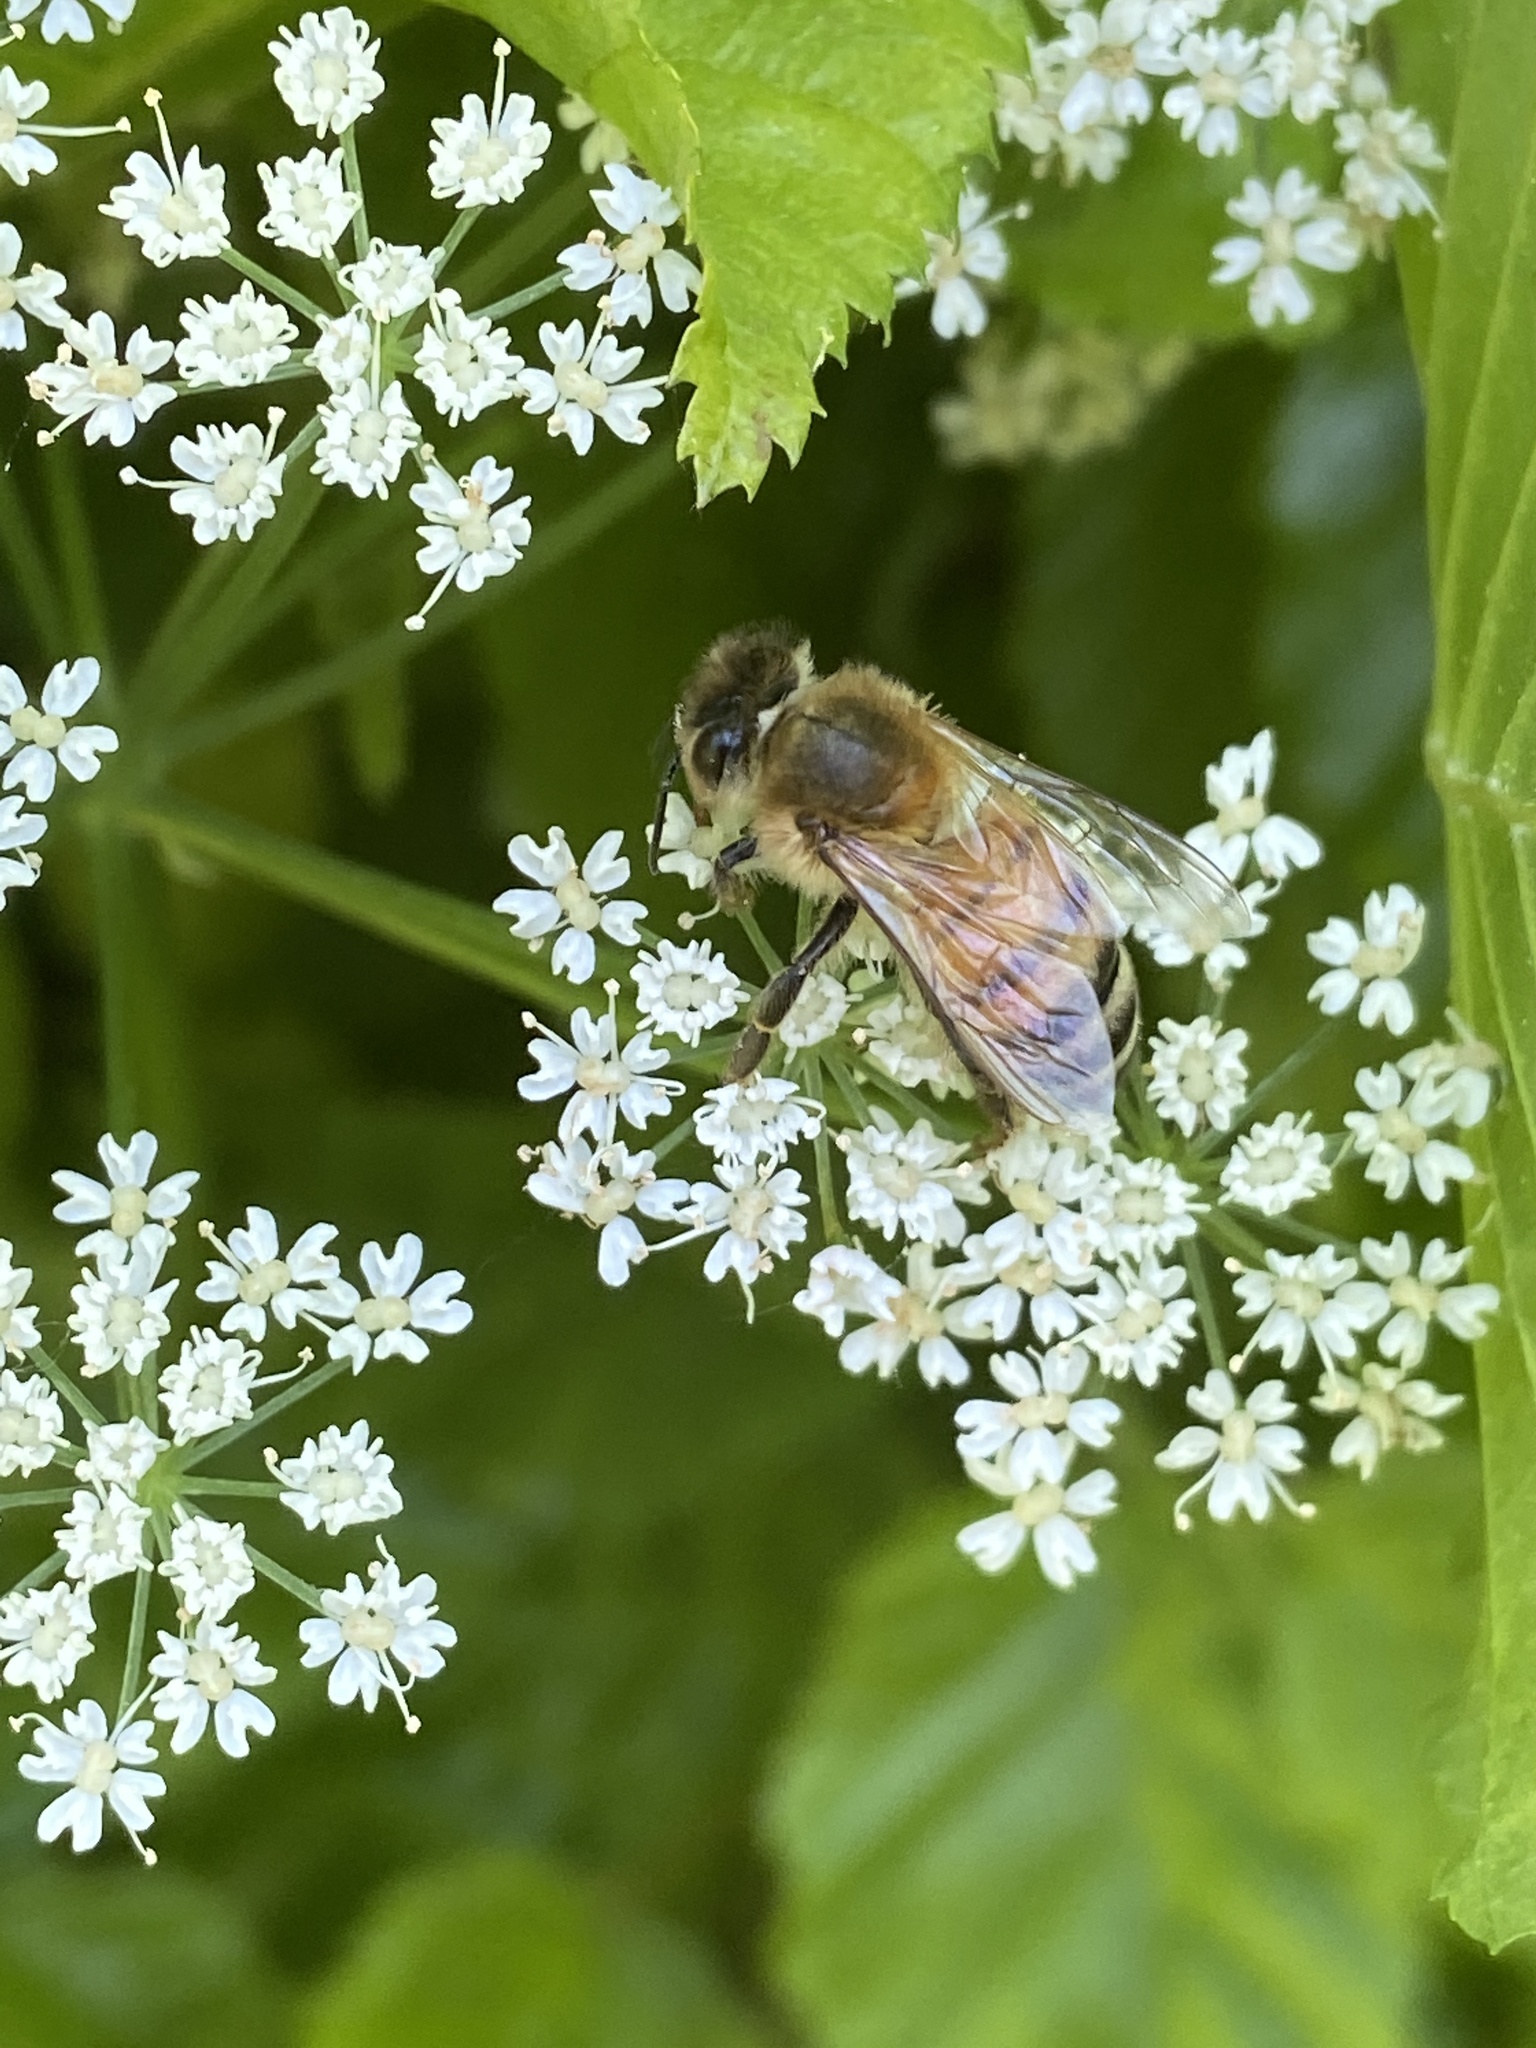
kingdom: Animalia
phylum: Arthropoda
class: Insecta
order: Hymenoptera
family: Apidae
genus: Apis
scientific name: Apis mellifera
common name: Honey bee
